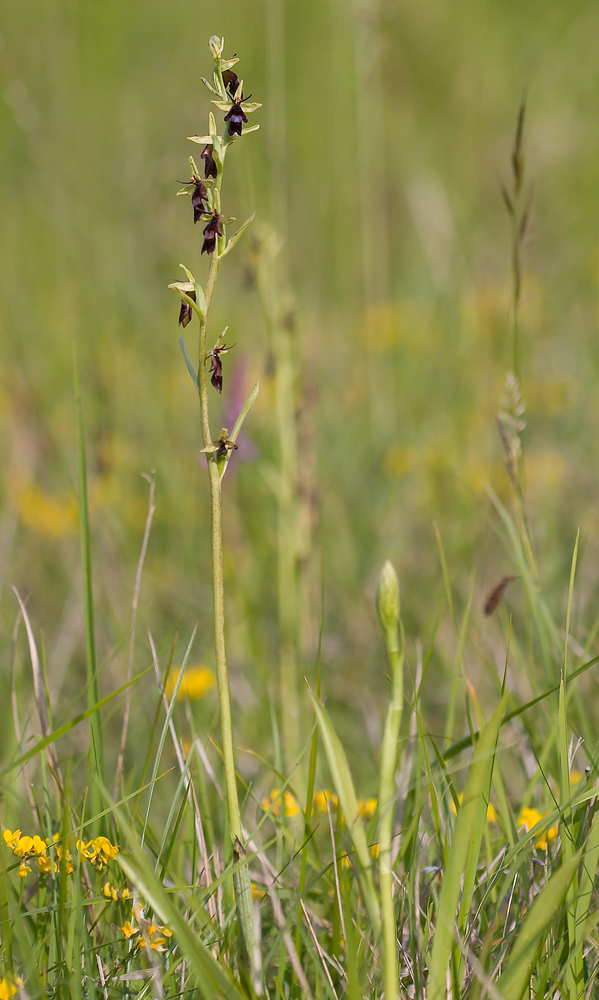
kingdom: Plantae
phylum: Tracheophyta
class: Liliopsida
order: Asparagales
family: Orchidaceae
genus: Ophrys
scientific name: Ophrys insectifera
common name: Fly orchid
